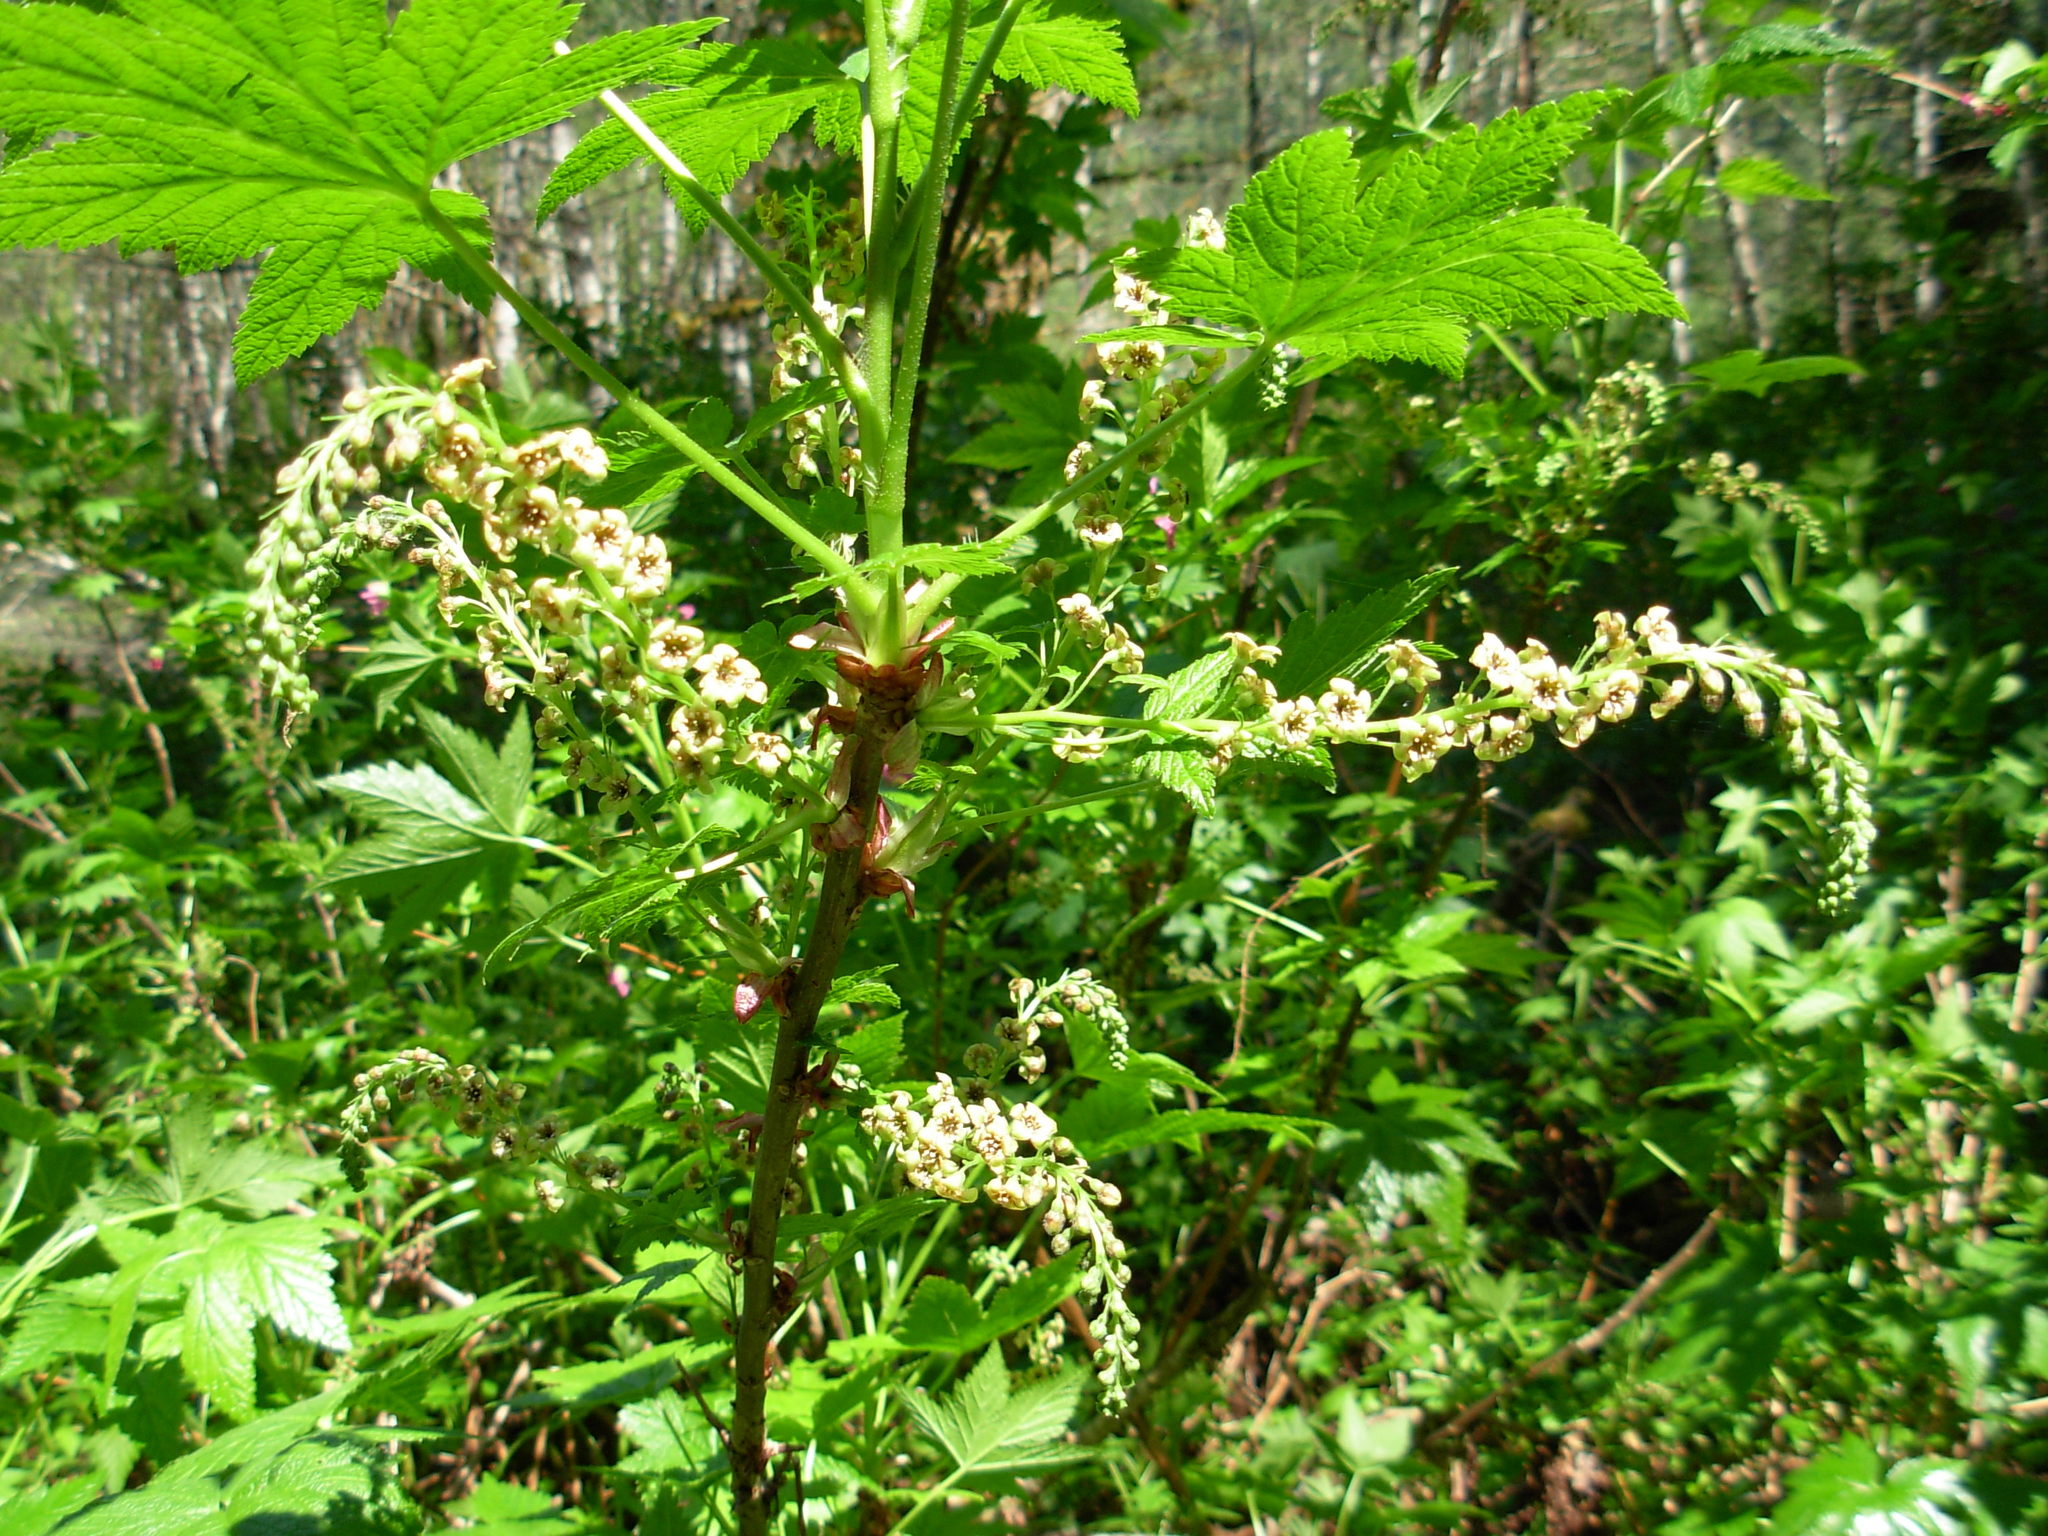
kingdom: Plantae
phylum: Tracheophyta
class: Magnoliopsida
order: Saxifragales
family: Grossulariaceae
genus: Ribes
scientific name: Ribes bracteosum
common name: California black currant
